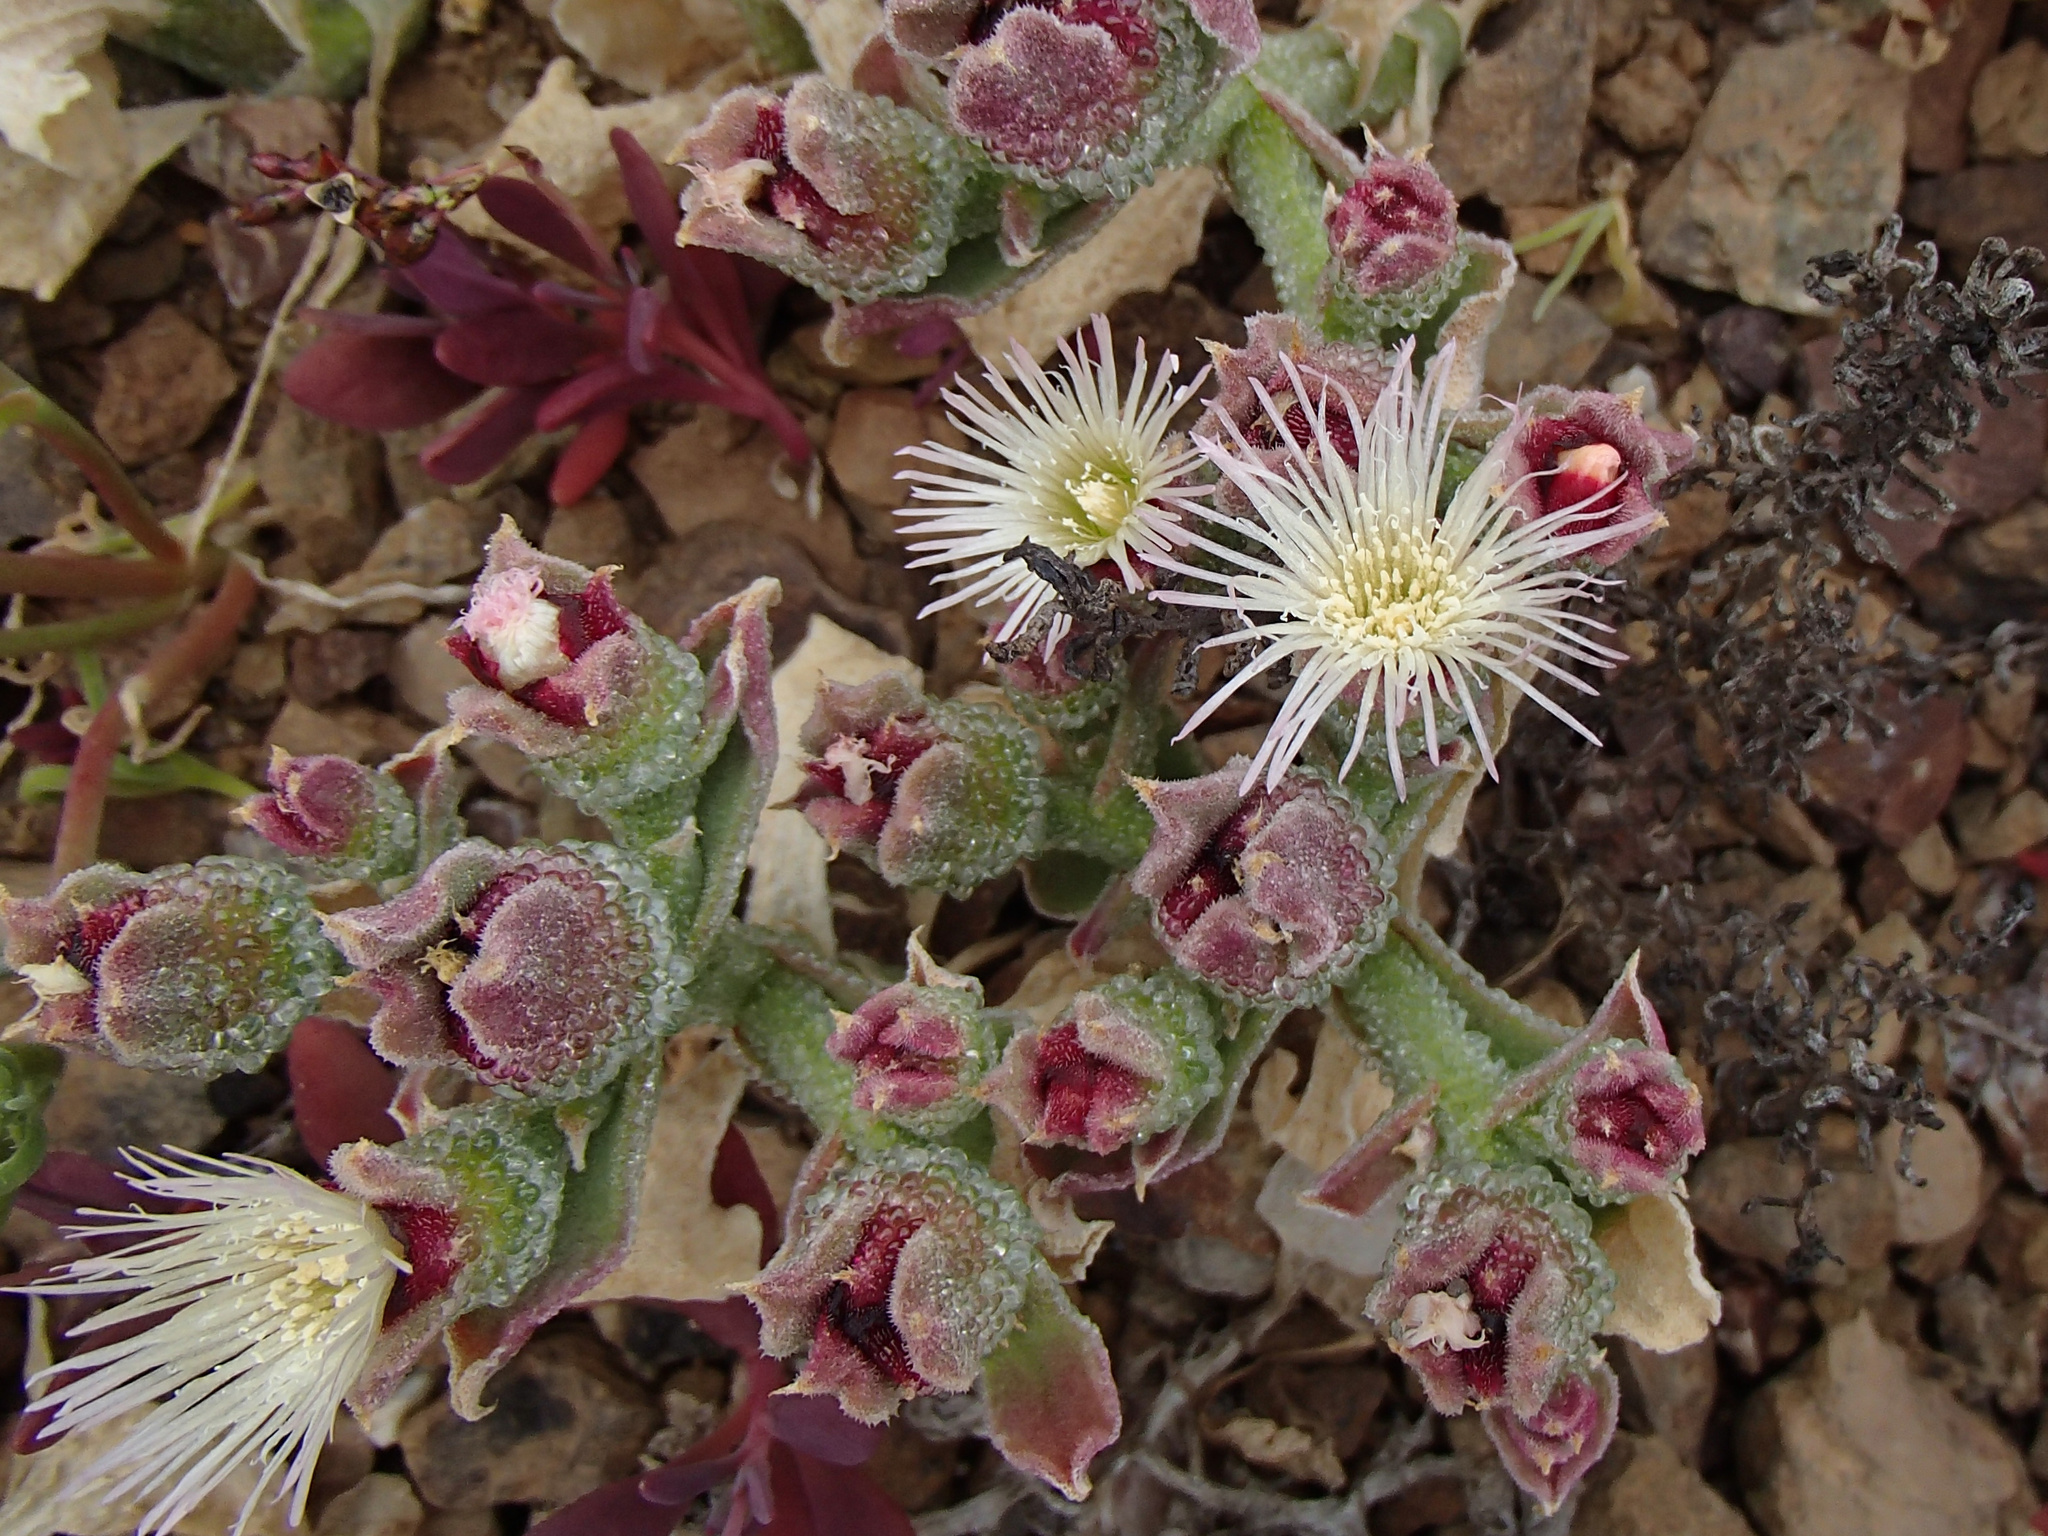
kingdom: Plantae
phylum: Tracheophyta
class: Magnoliopsida
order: Caryophyllales
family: Aizoaceae
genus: Mesembryanthemum
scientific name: Mesembryanthemum crystallinum
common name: Common iceplant
